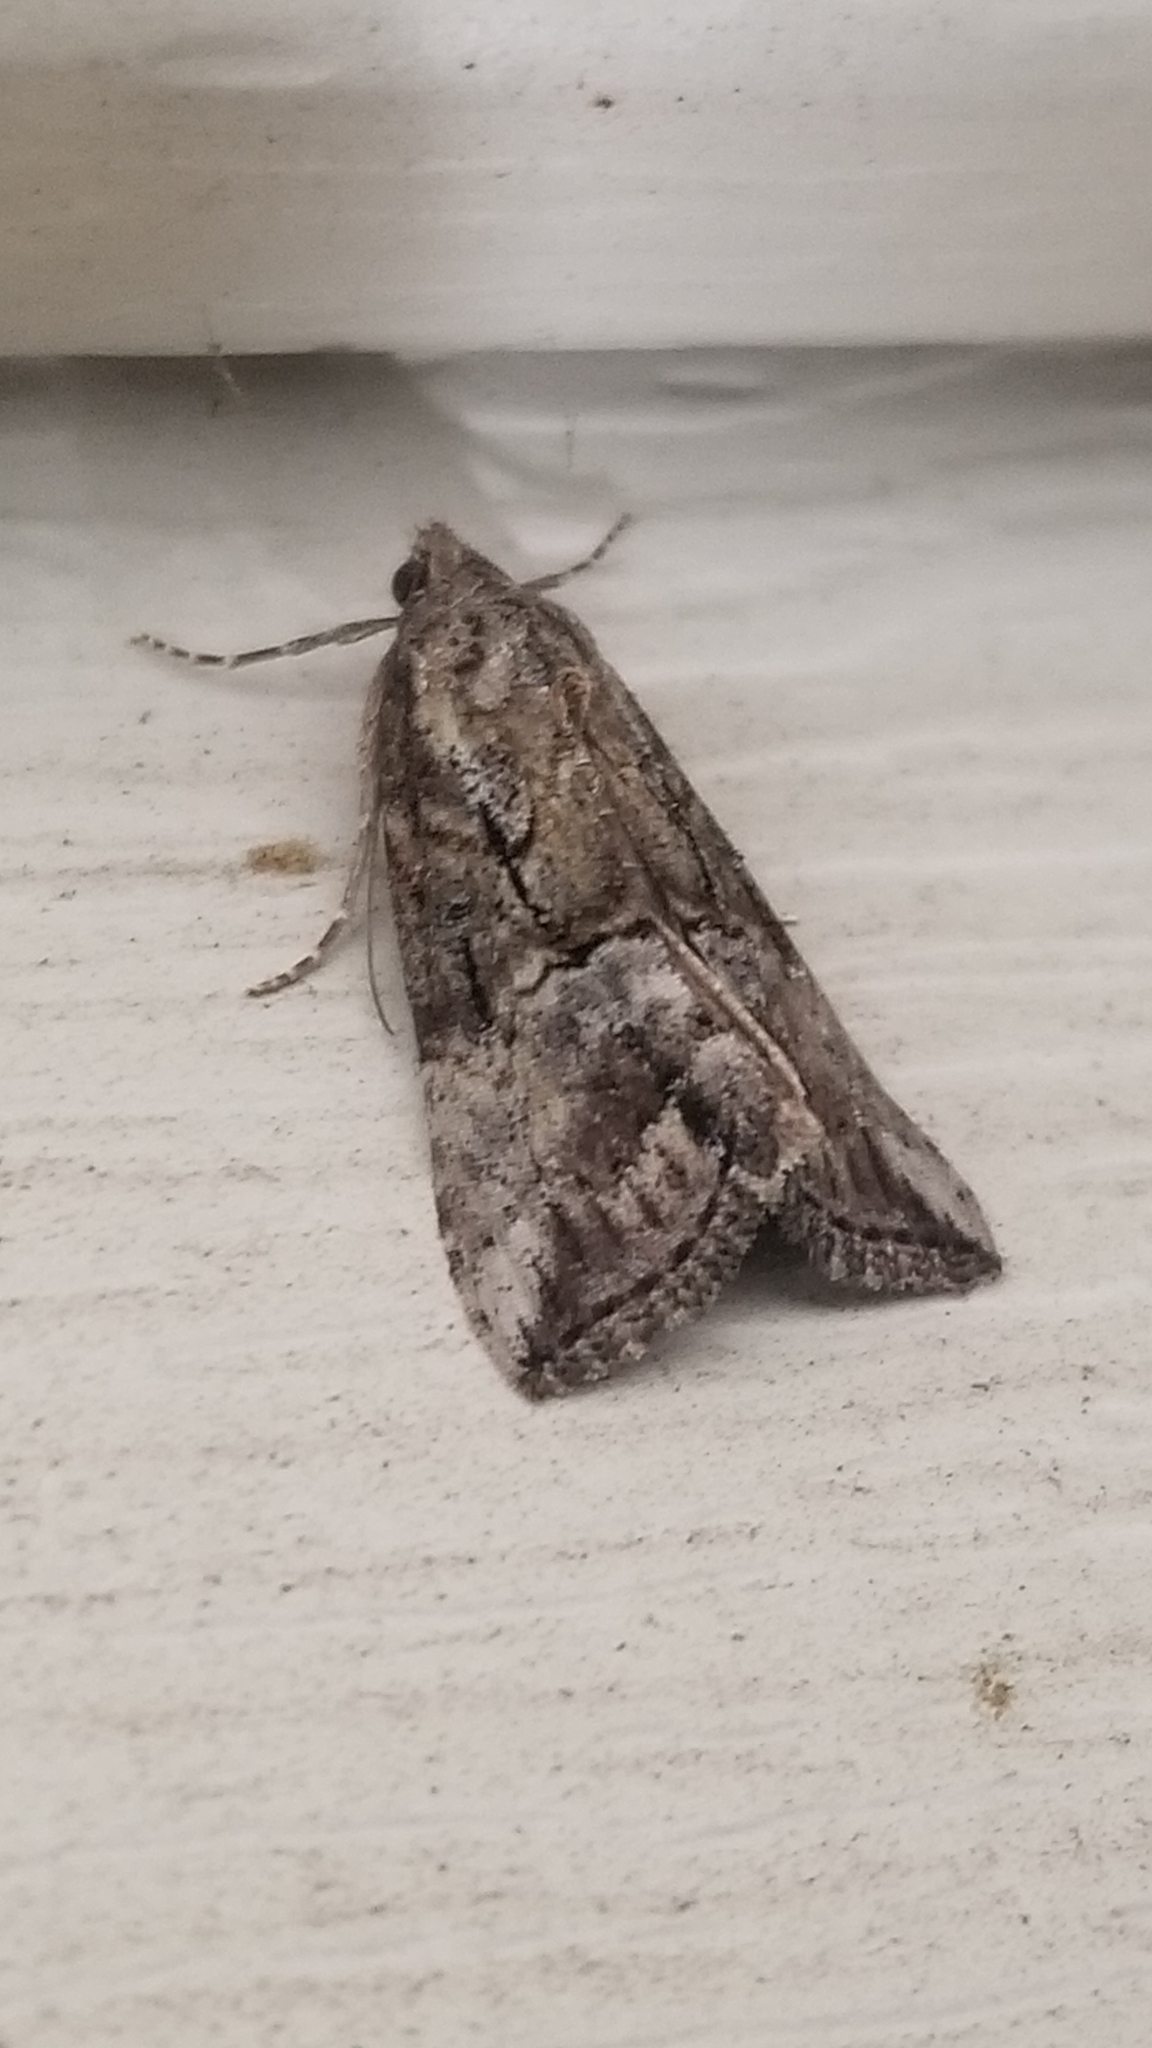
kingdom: Animalia
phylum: Arthropoda
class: Insecta
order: Lepidoptera
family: Erebidae
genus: Hypena
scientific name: Hypena scabra
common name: Green cloverworm
